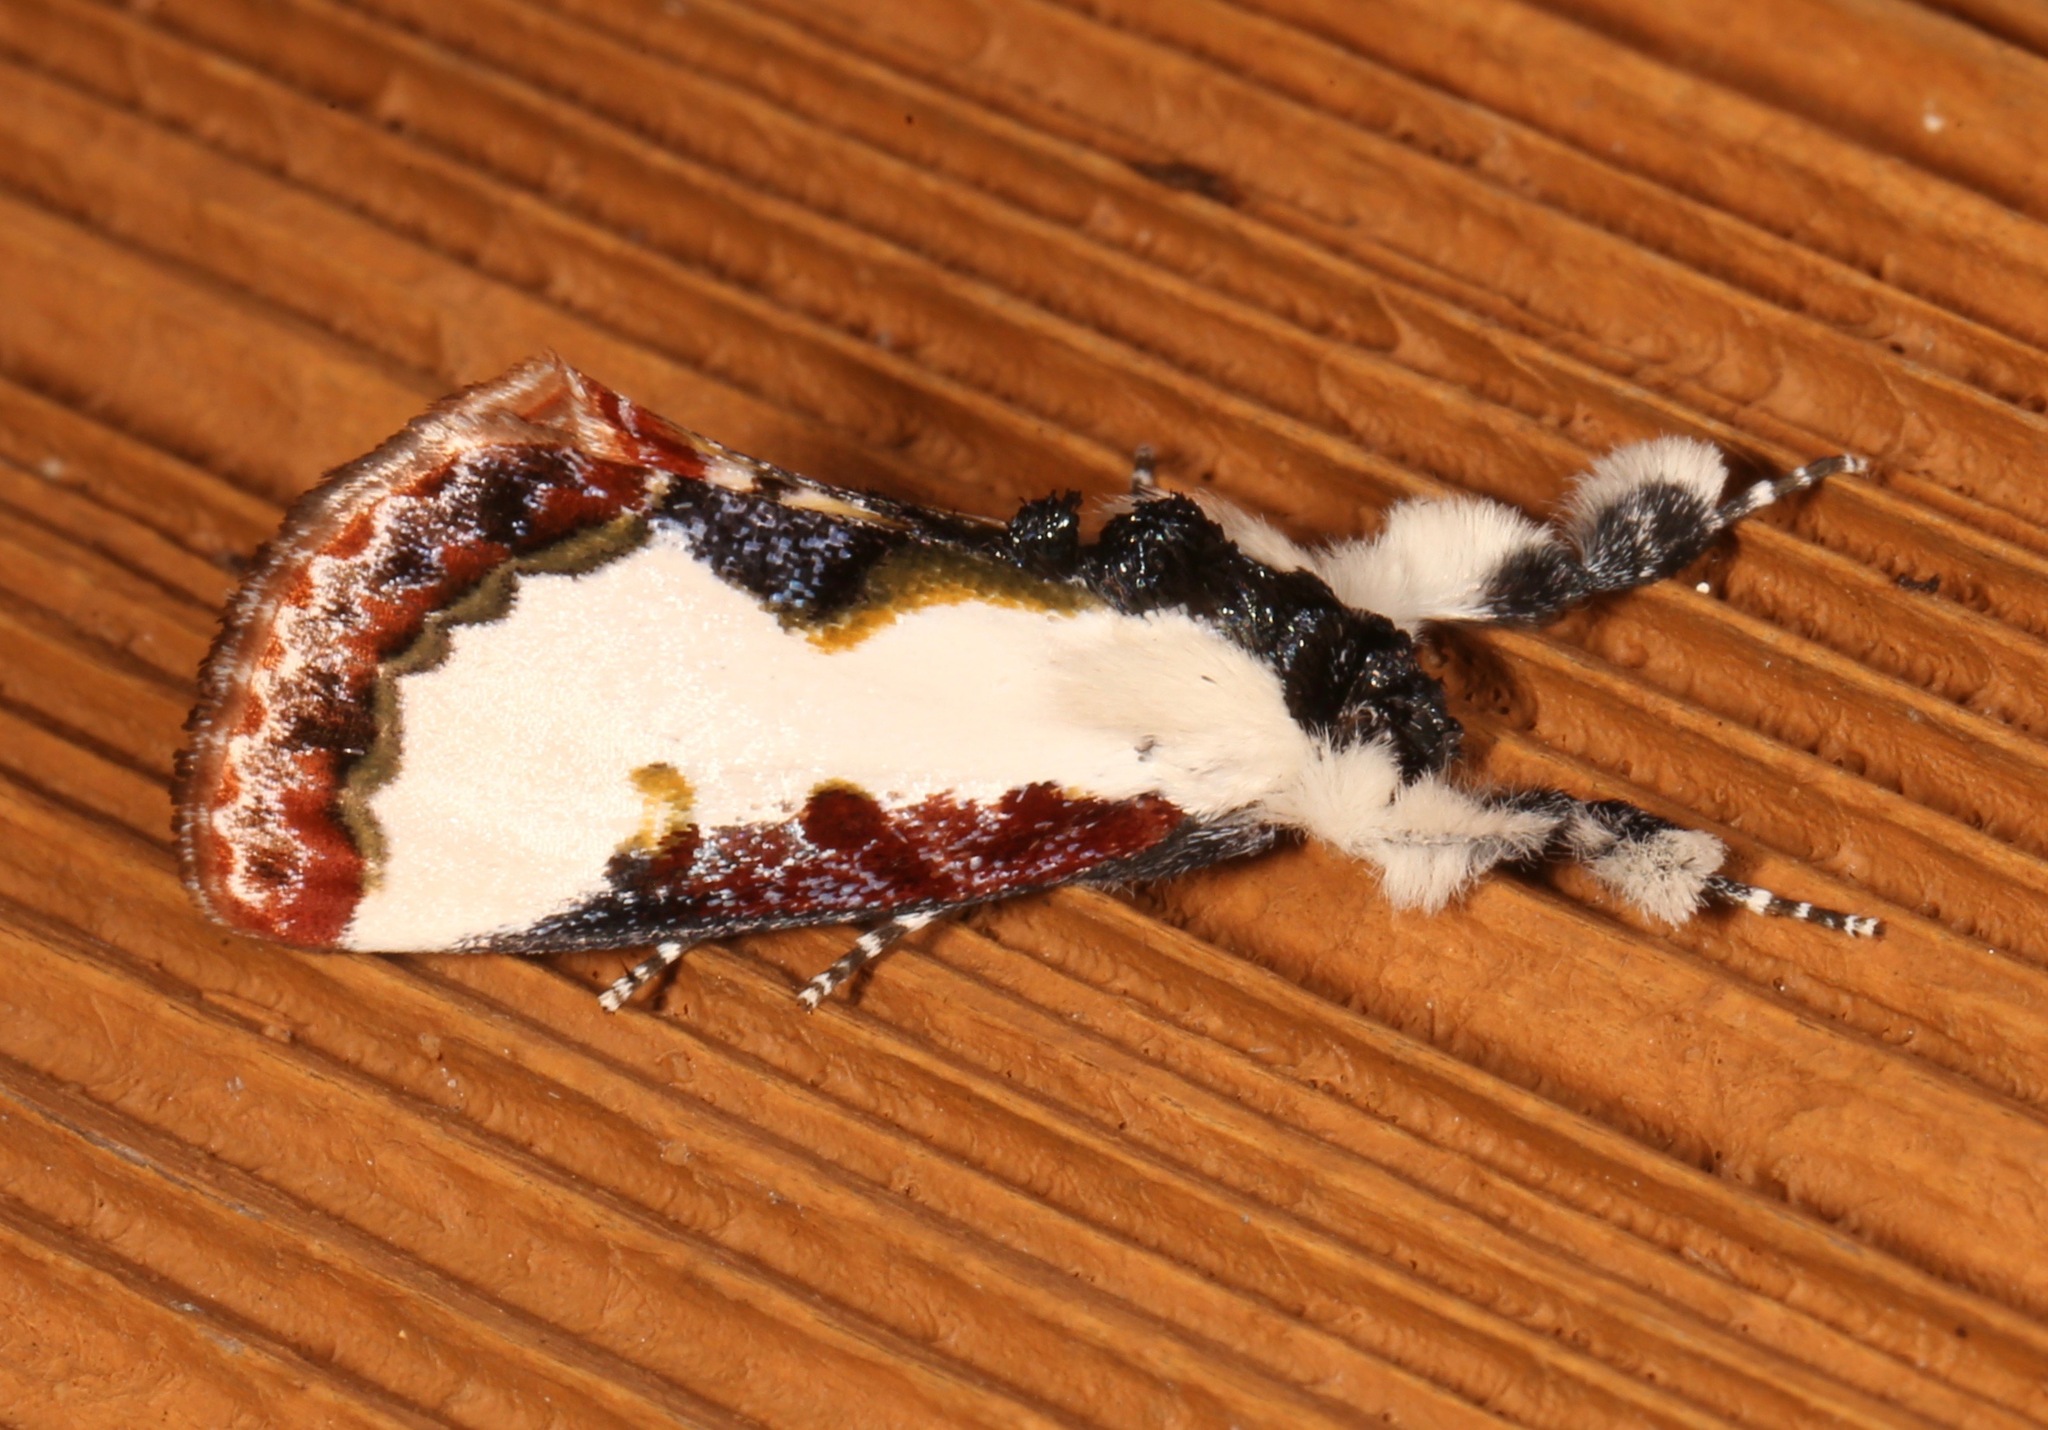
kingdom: Animalia
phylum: Arthropoda
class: Insecta
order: Lepidoptera
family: Noctuidae
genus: Eudryas
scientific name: Eudryas unio
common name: Pearly wood-nymph
